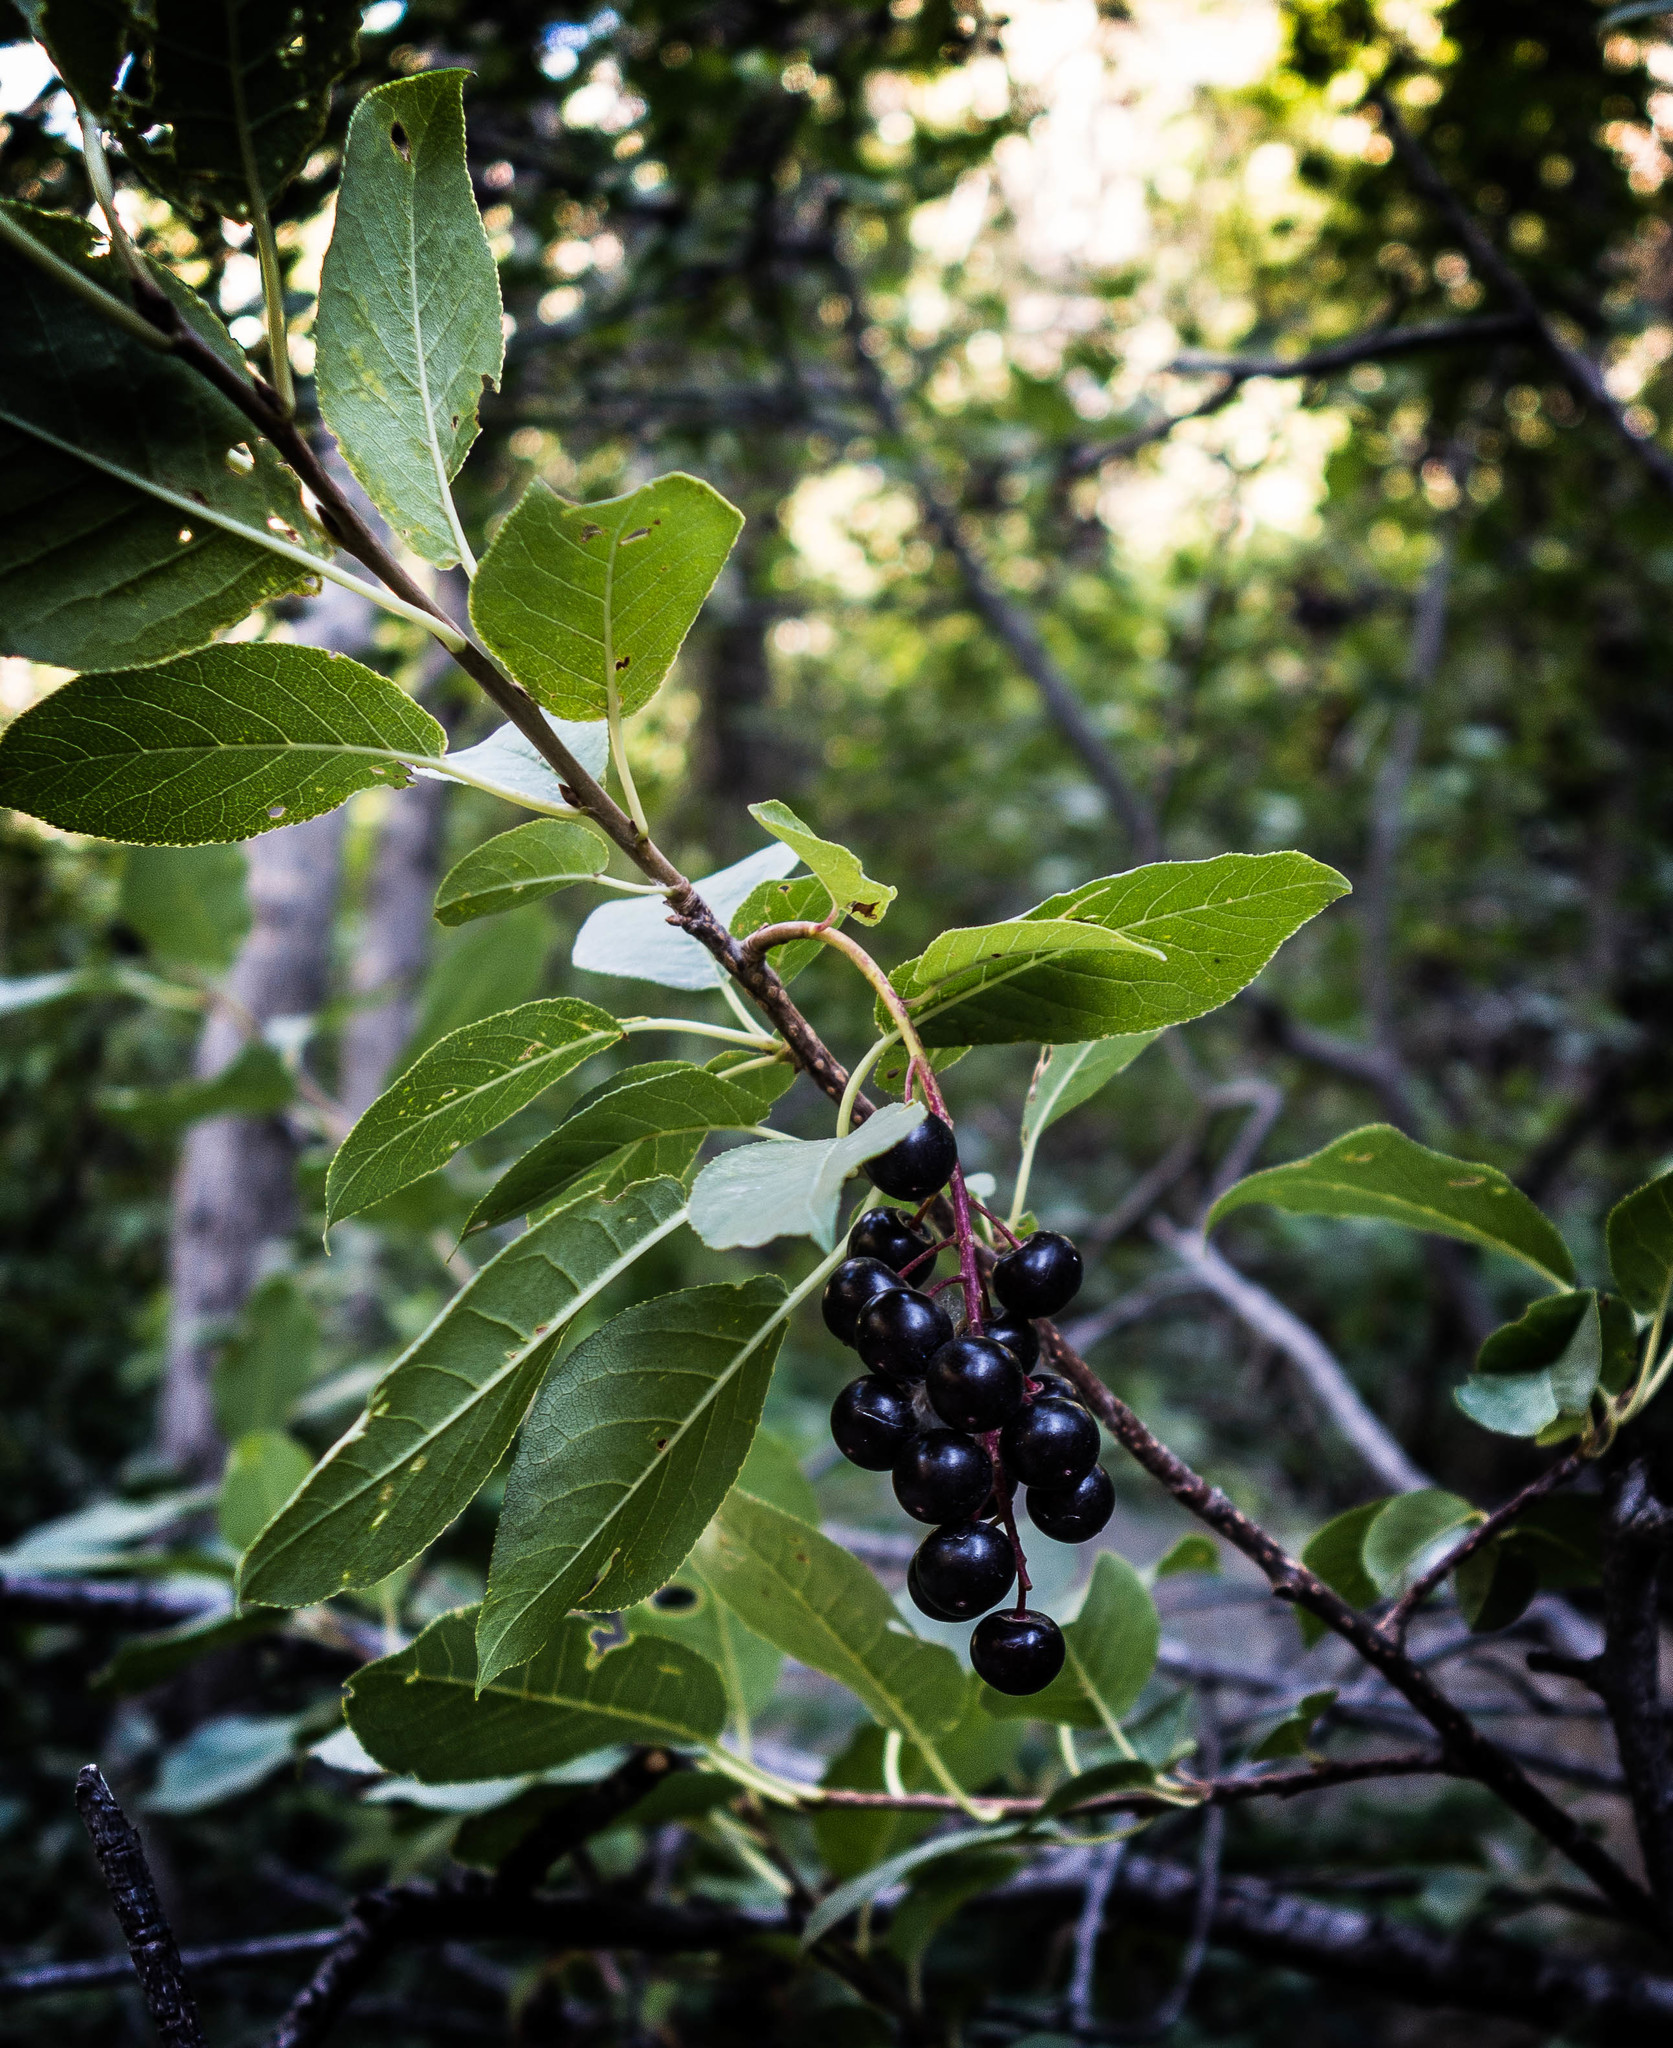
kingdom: Plantae
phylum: Tracheophyta
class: Magnoliopsida
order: Rosales
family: Rosaceae
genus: Prunus
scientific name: Prunus virginiana
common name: Chokecherry
